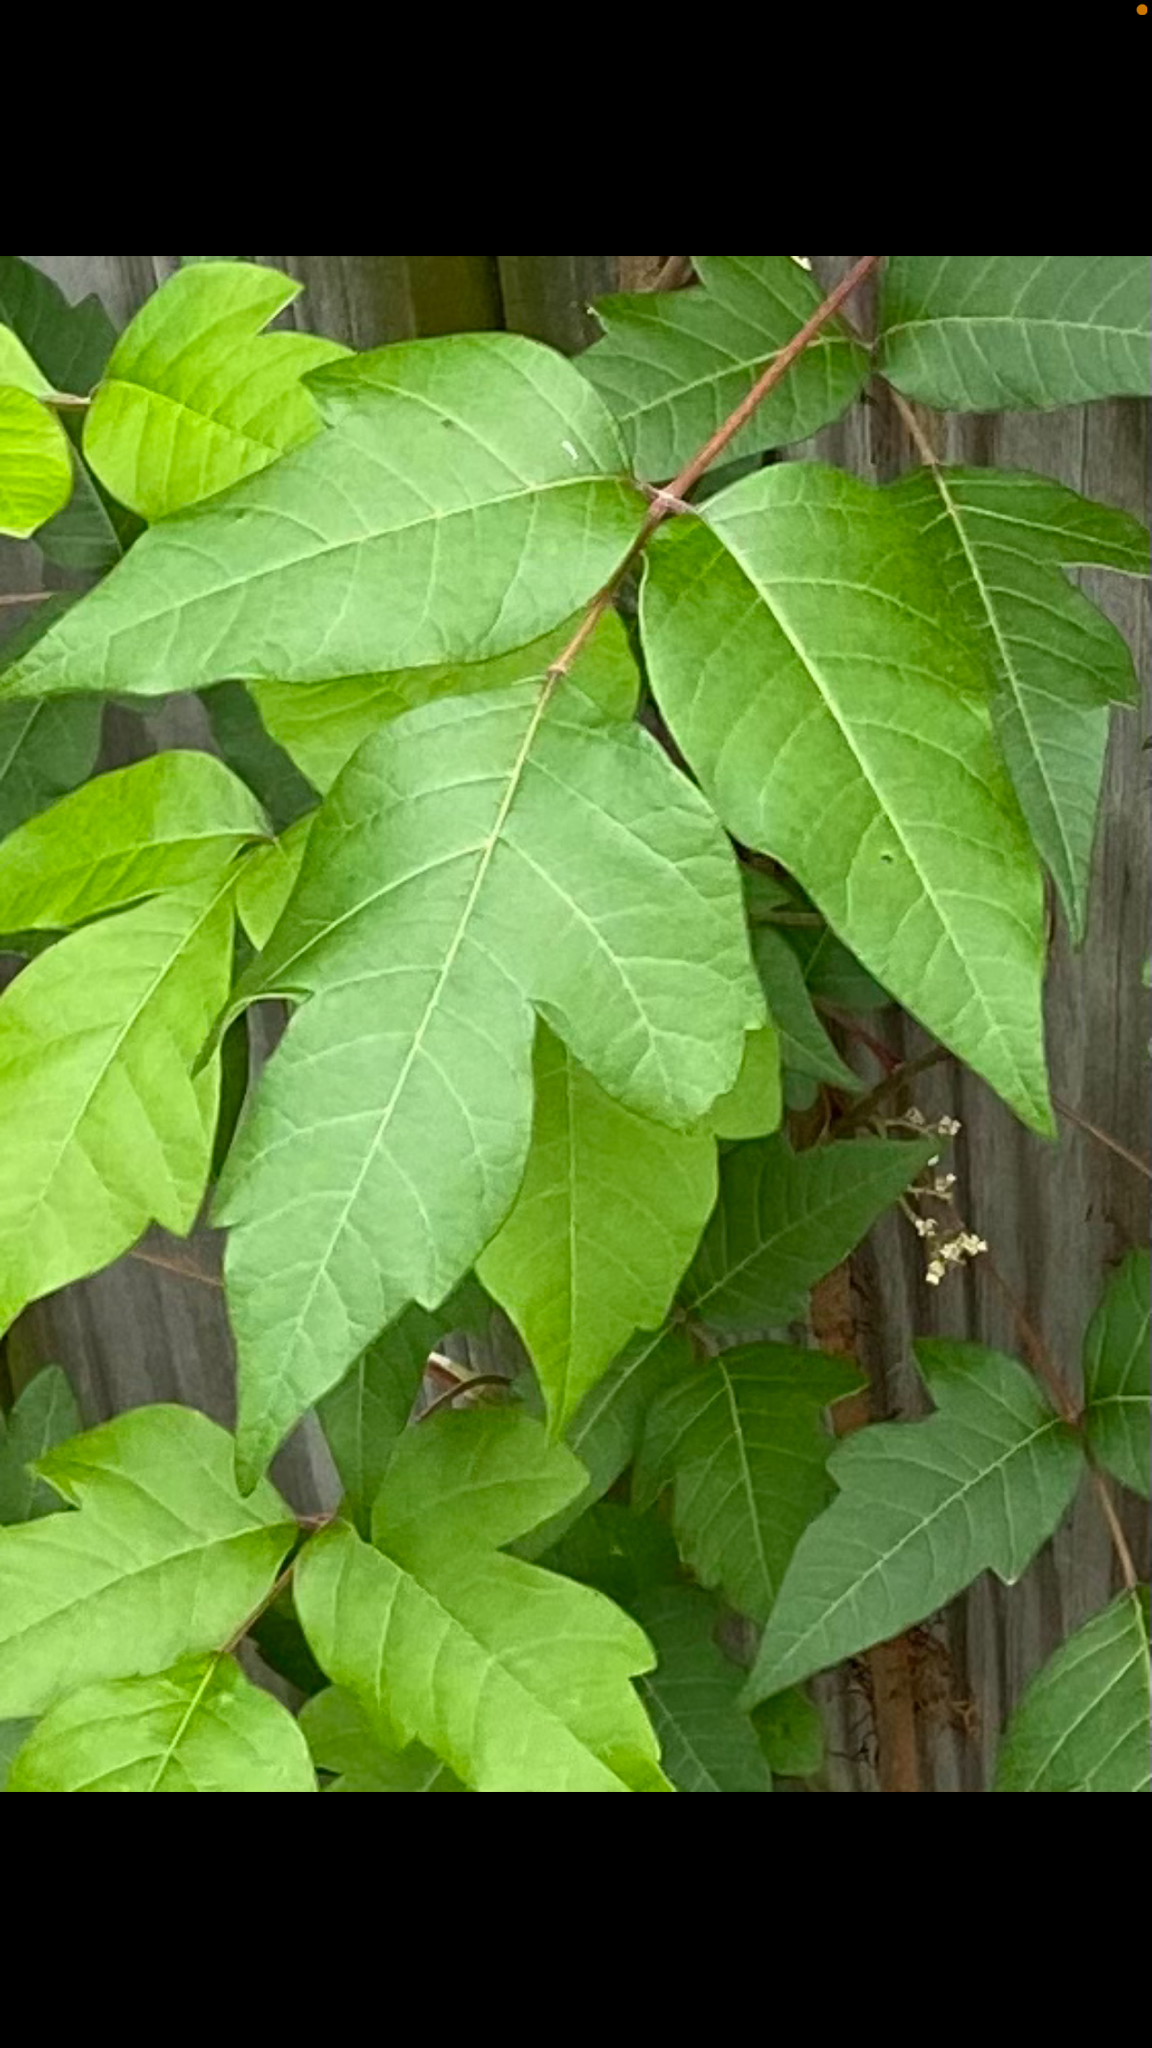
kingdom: Plantae
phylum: Tracheophyta
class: Magnoliopsida
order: Sapindales
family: Anacardiaceae
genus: Toxicodendron
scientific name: Toxicodendron radicans
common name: Poison ivy
